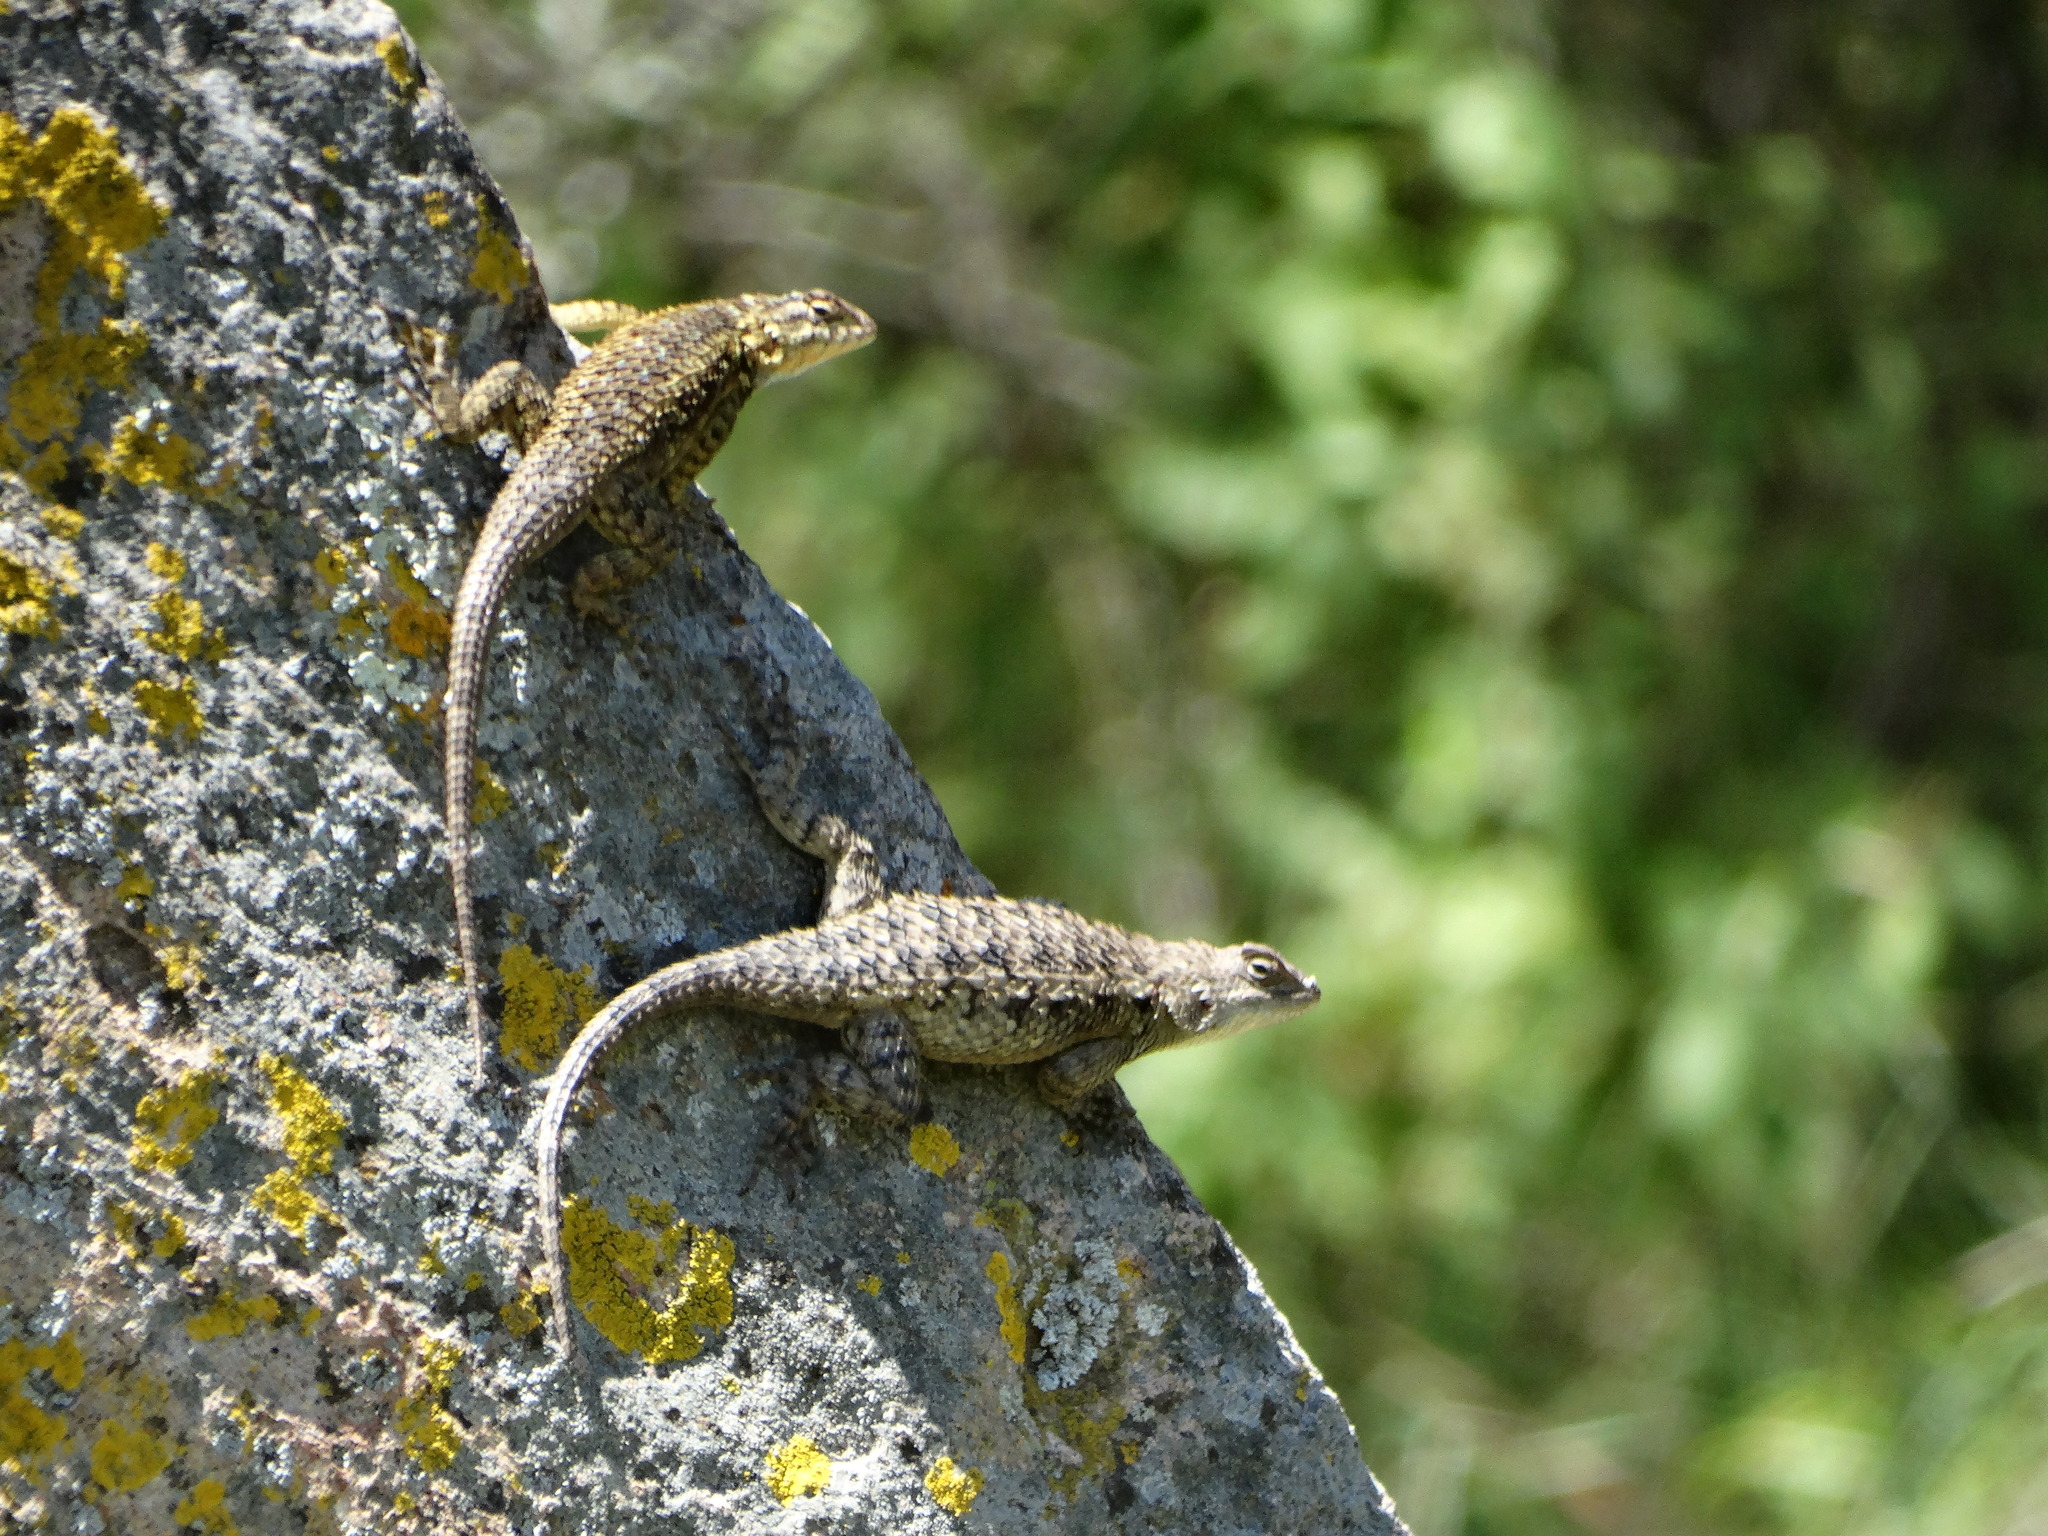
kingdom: Animalia
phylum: Chordata
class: Squamata
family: Phrynosomatidae
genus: Sceloporus
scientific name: Sceloporus spinosus
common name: Blue-spotted spiny lizard [caeruleopunctatus]
